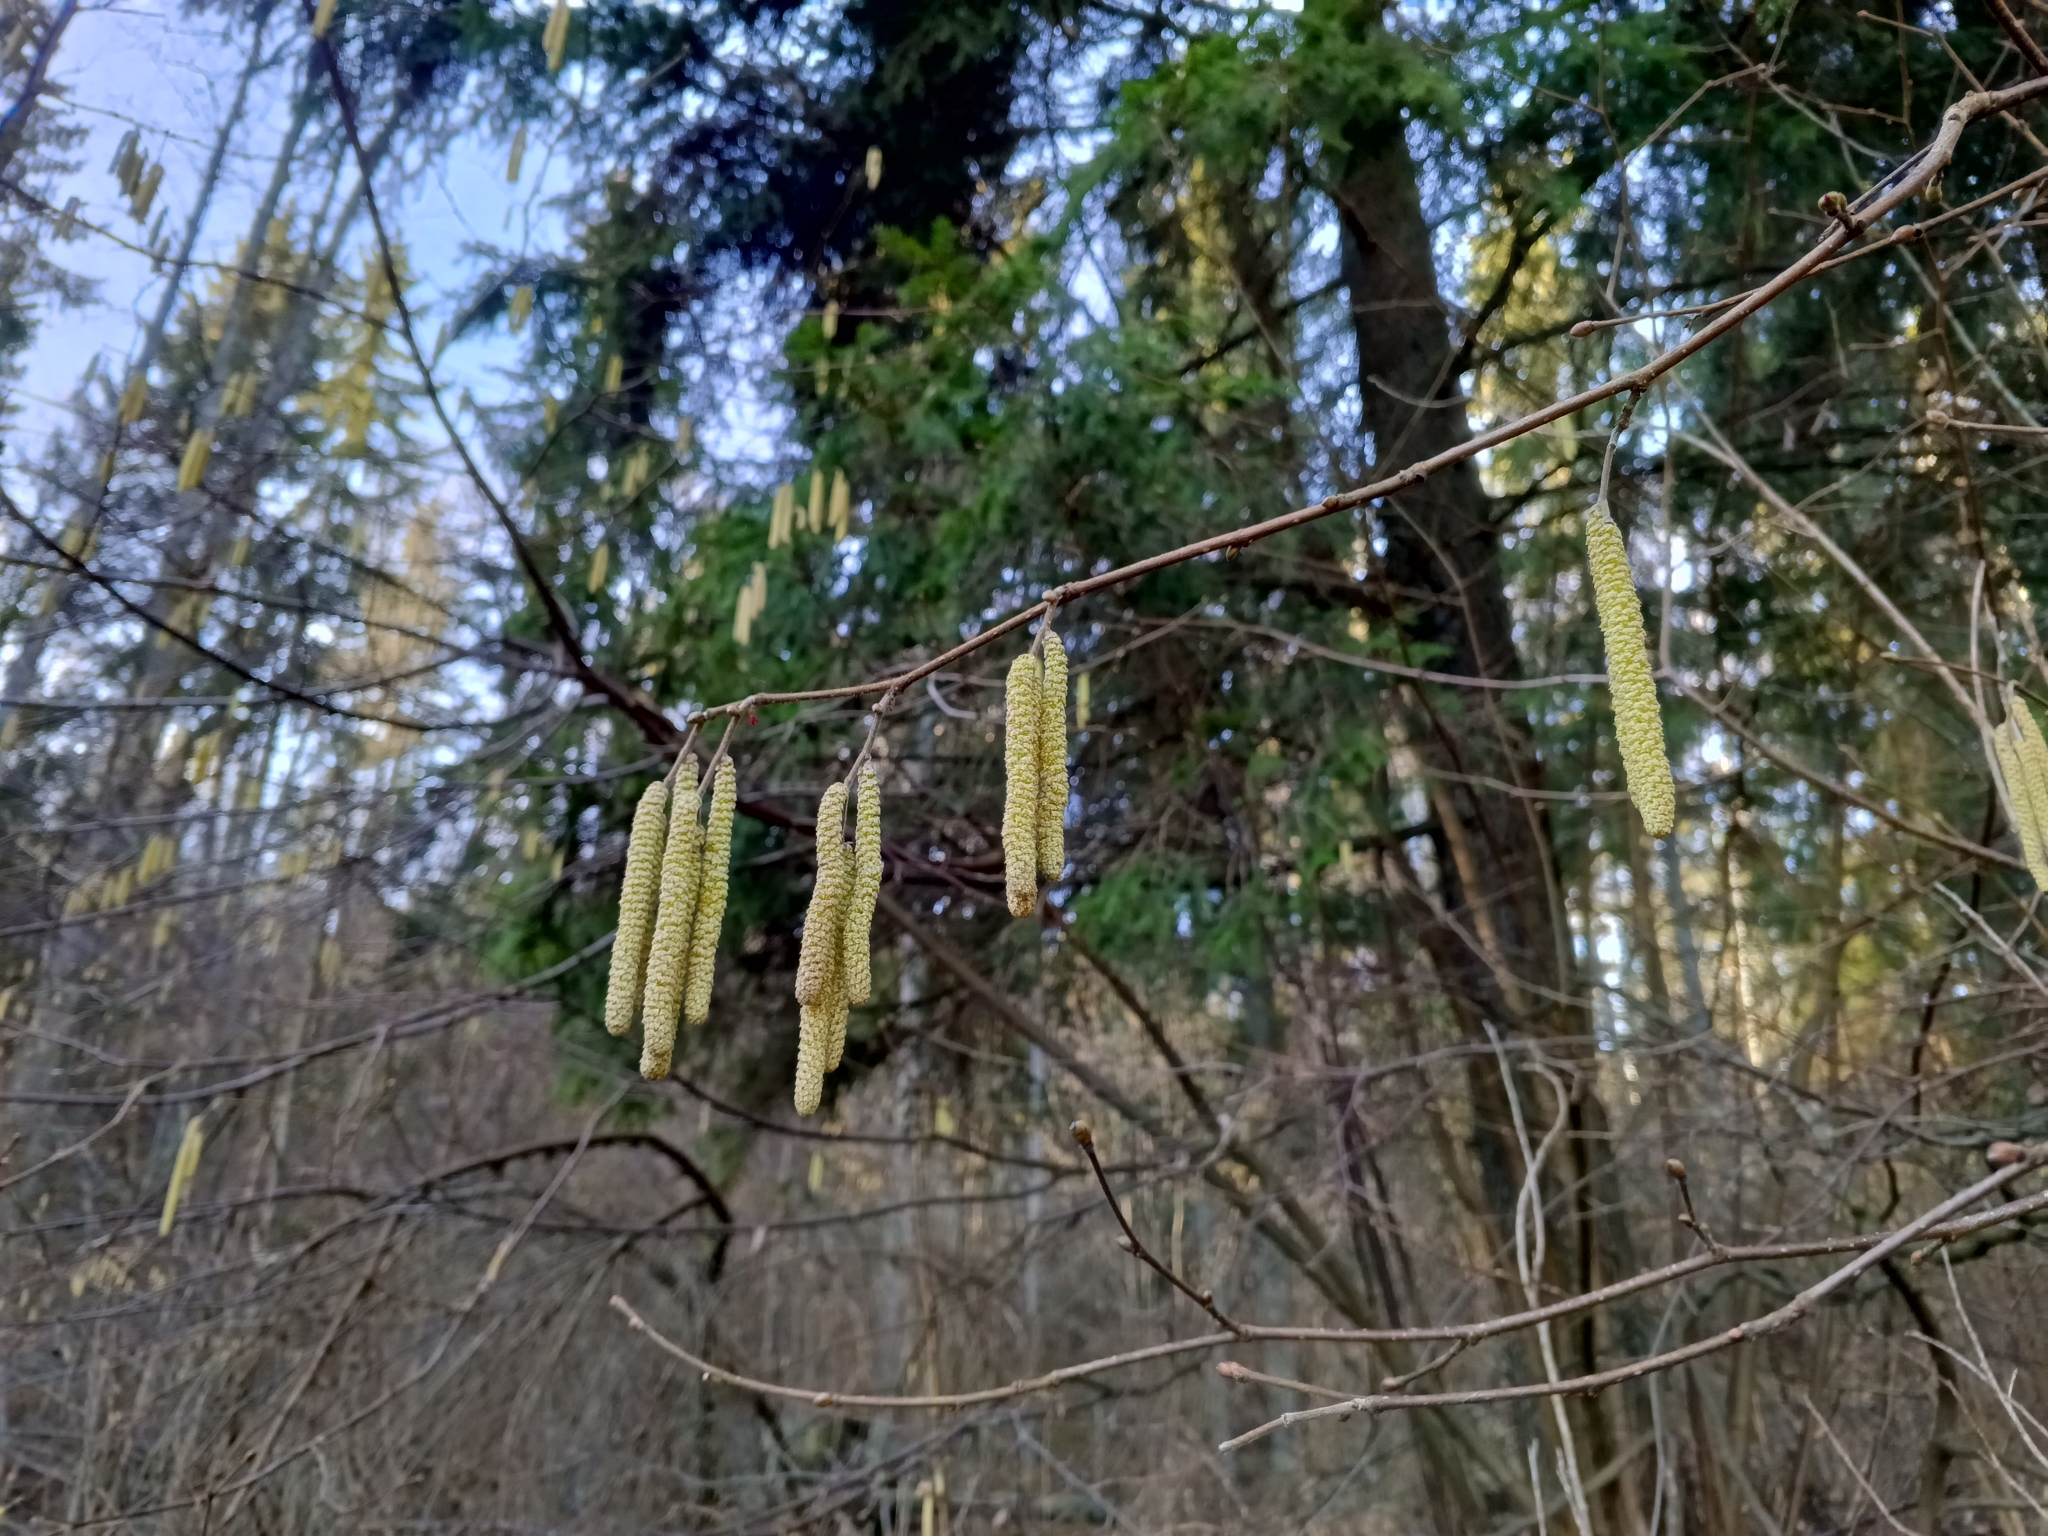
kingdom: Plantae
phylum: Tracheophyta
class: Magnoliopsida
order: Fagales
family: Betulaceae
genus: Corylus
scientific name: Corylus avellana
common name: European hazel
